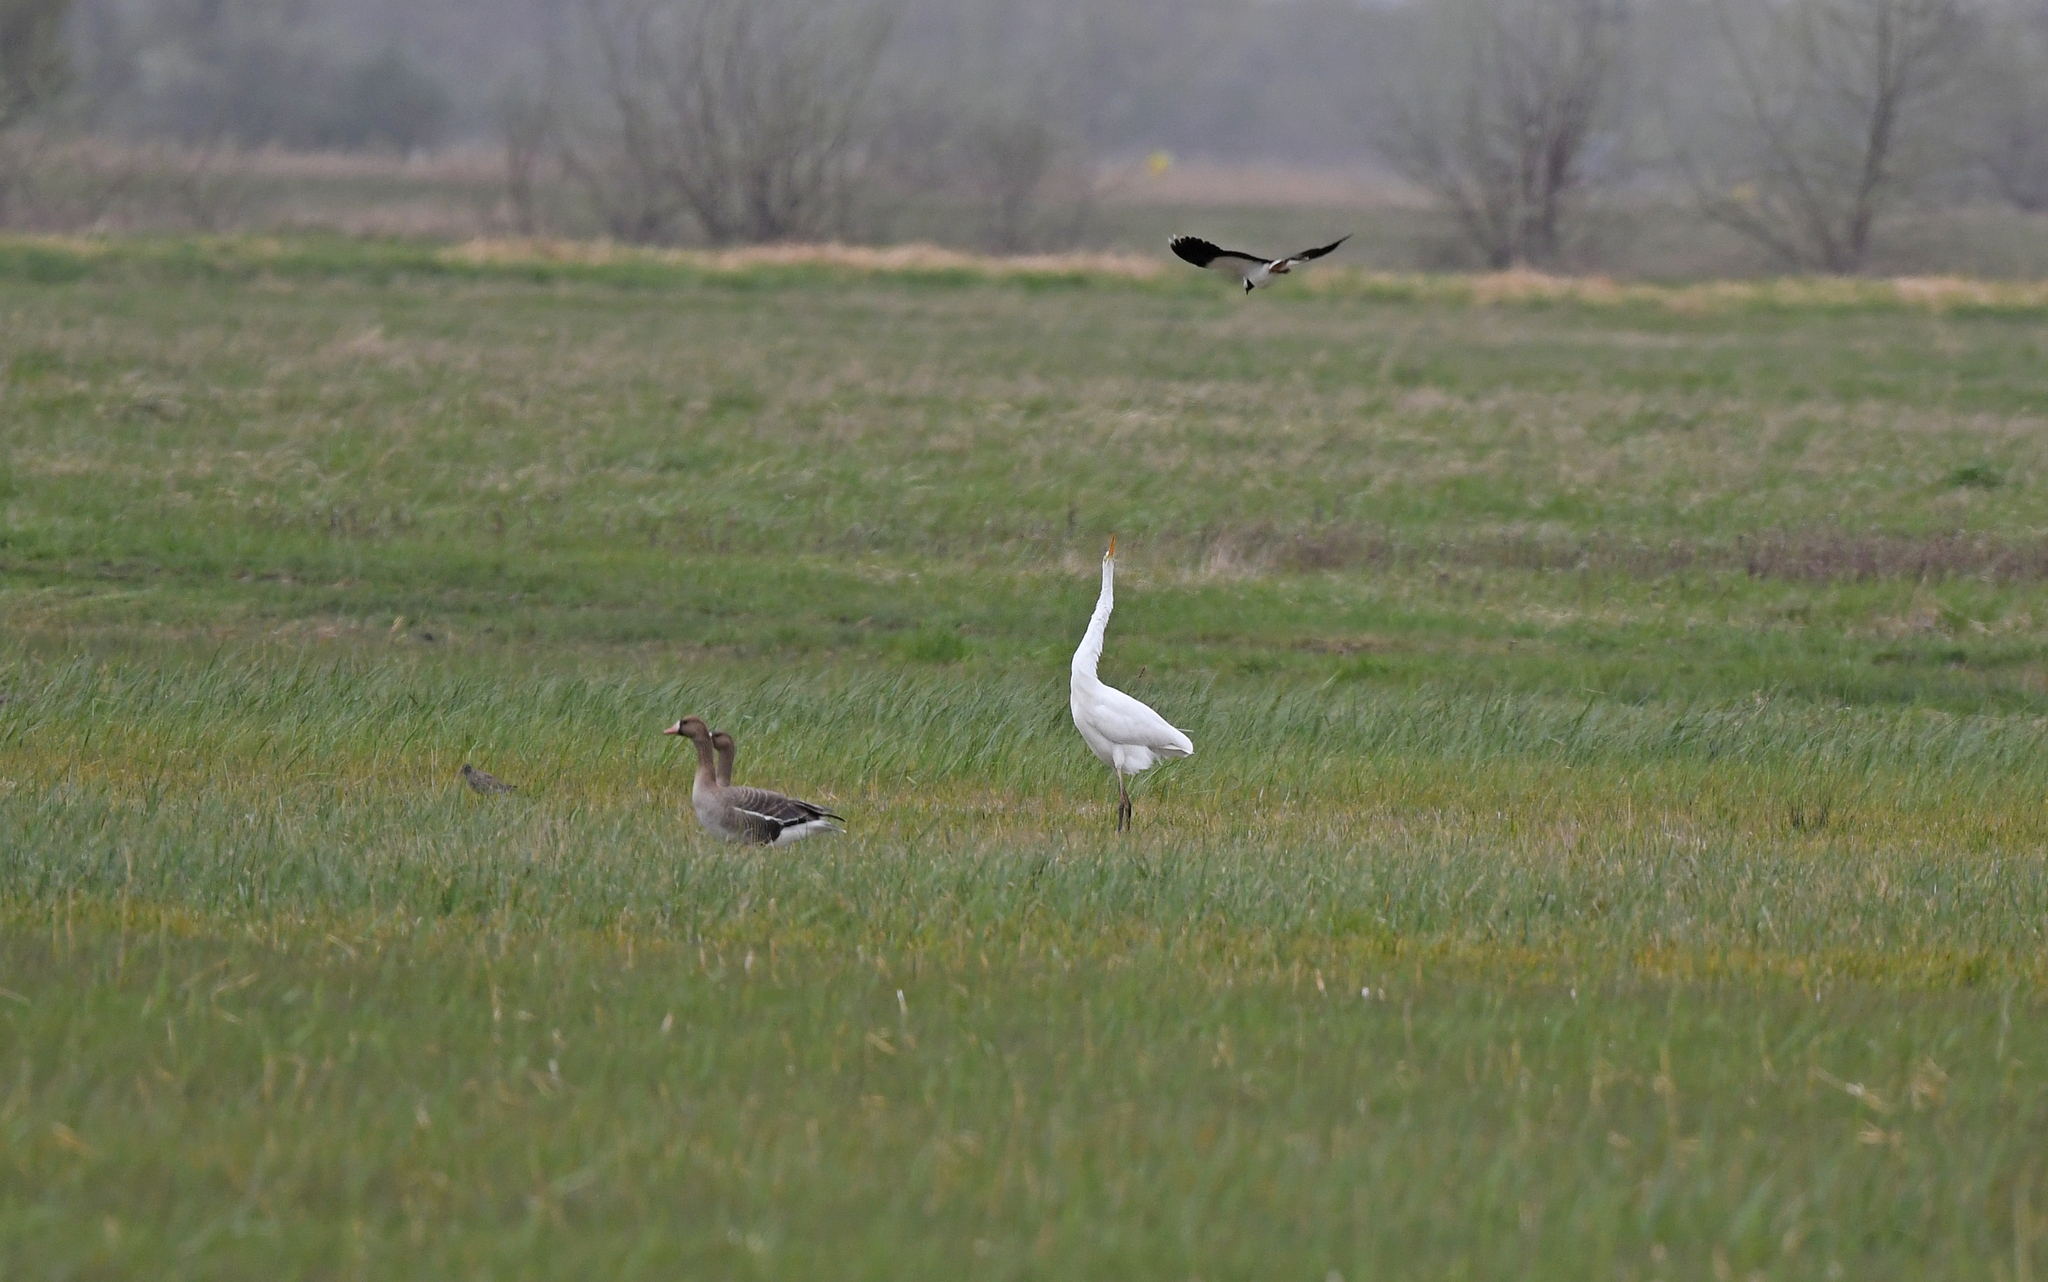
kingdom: Animalia
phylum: Chordata
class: Aves
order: Pelecaniformes
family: Ardeidae
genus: Ardea
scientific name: Ardea alba
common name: Great egret
